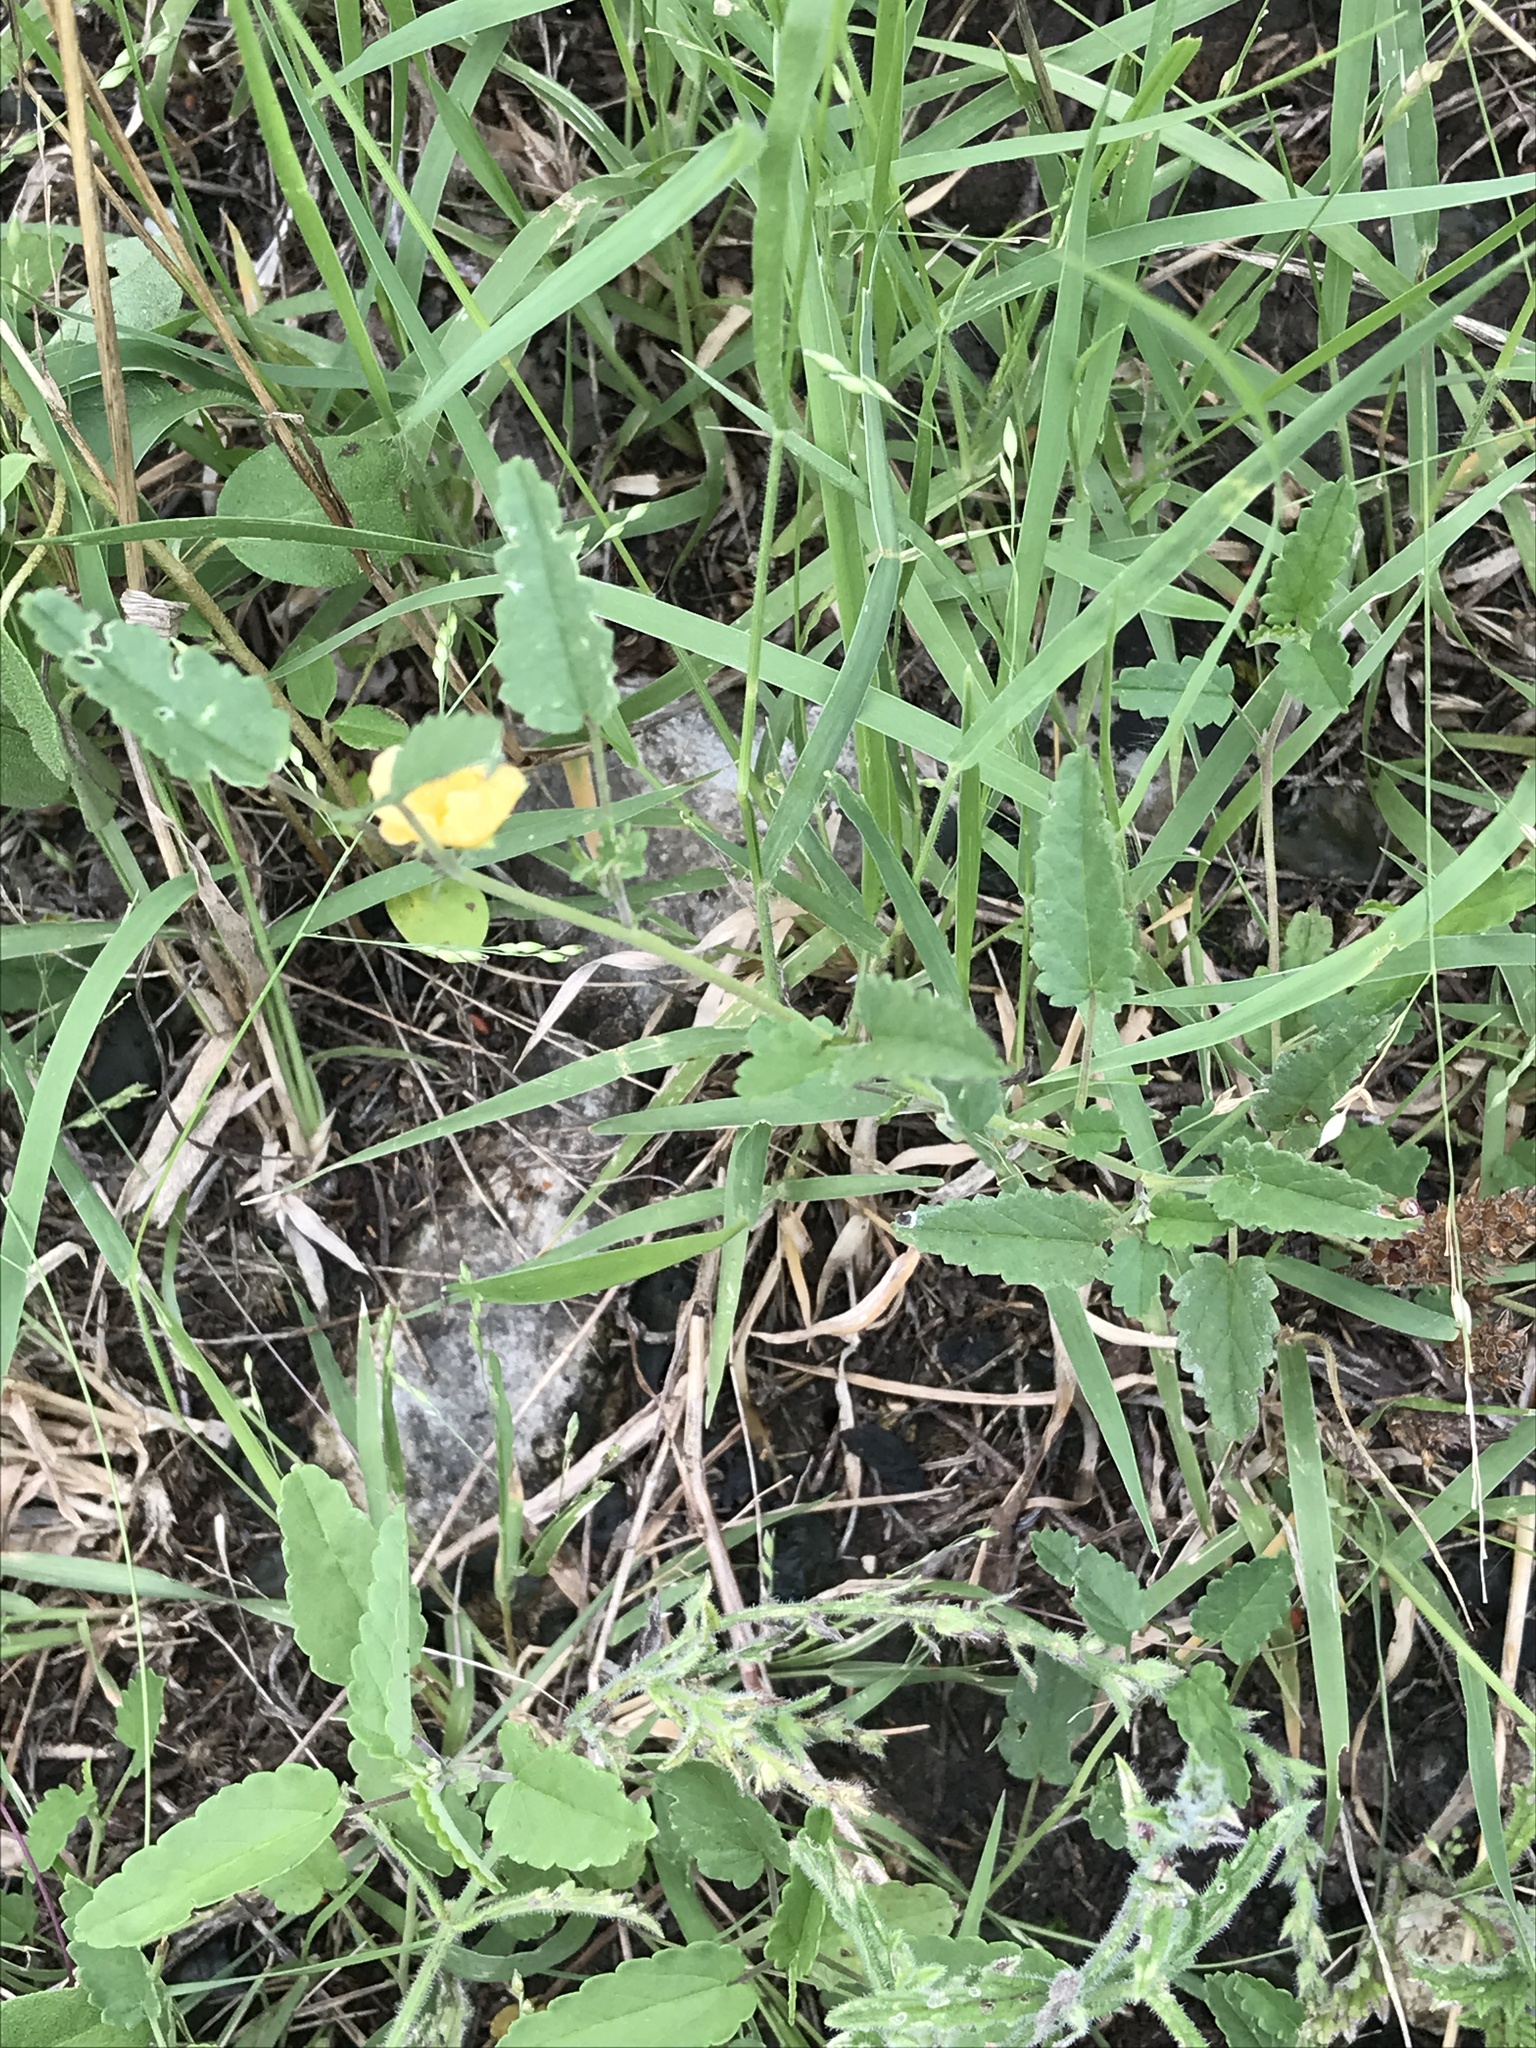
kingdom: Plantae
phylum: Tracheophyta
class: Magnoliopsida
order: Malvales
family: Malvaceae
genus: Sida
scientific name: Sida abutilifolia
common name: Spreading fanpetals
